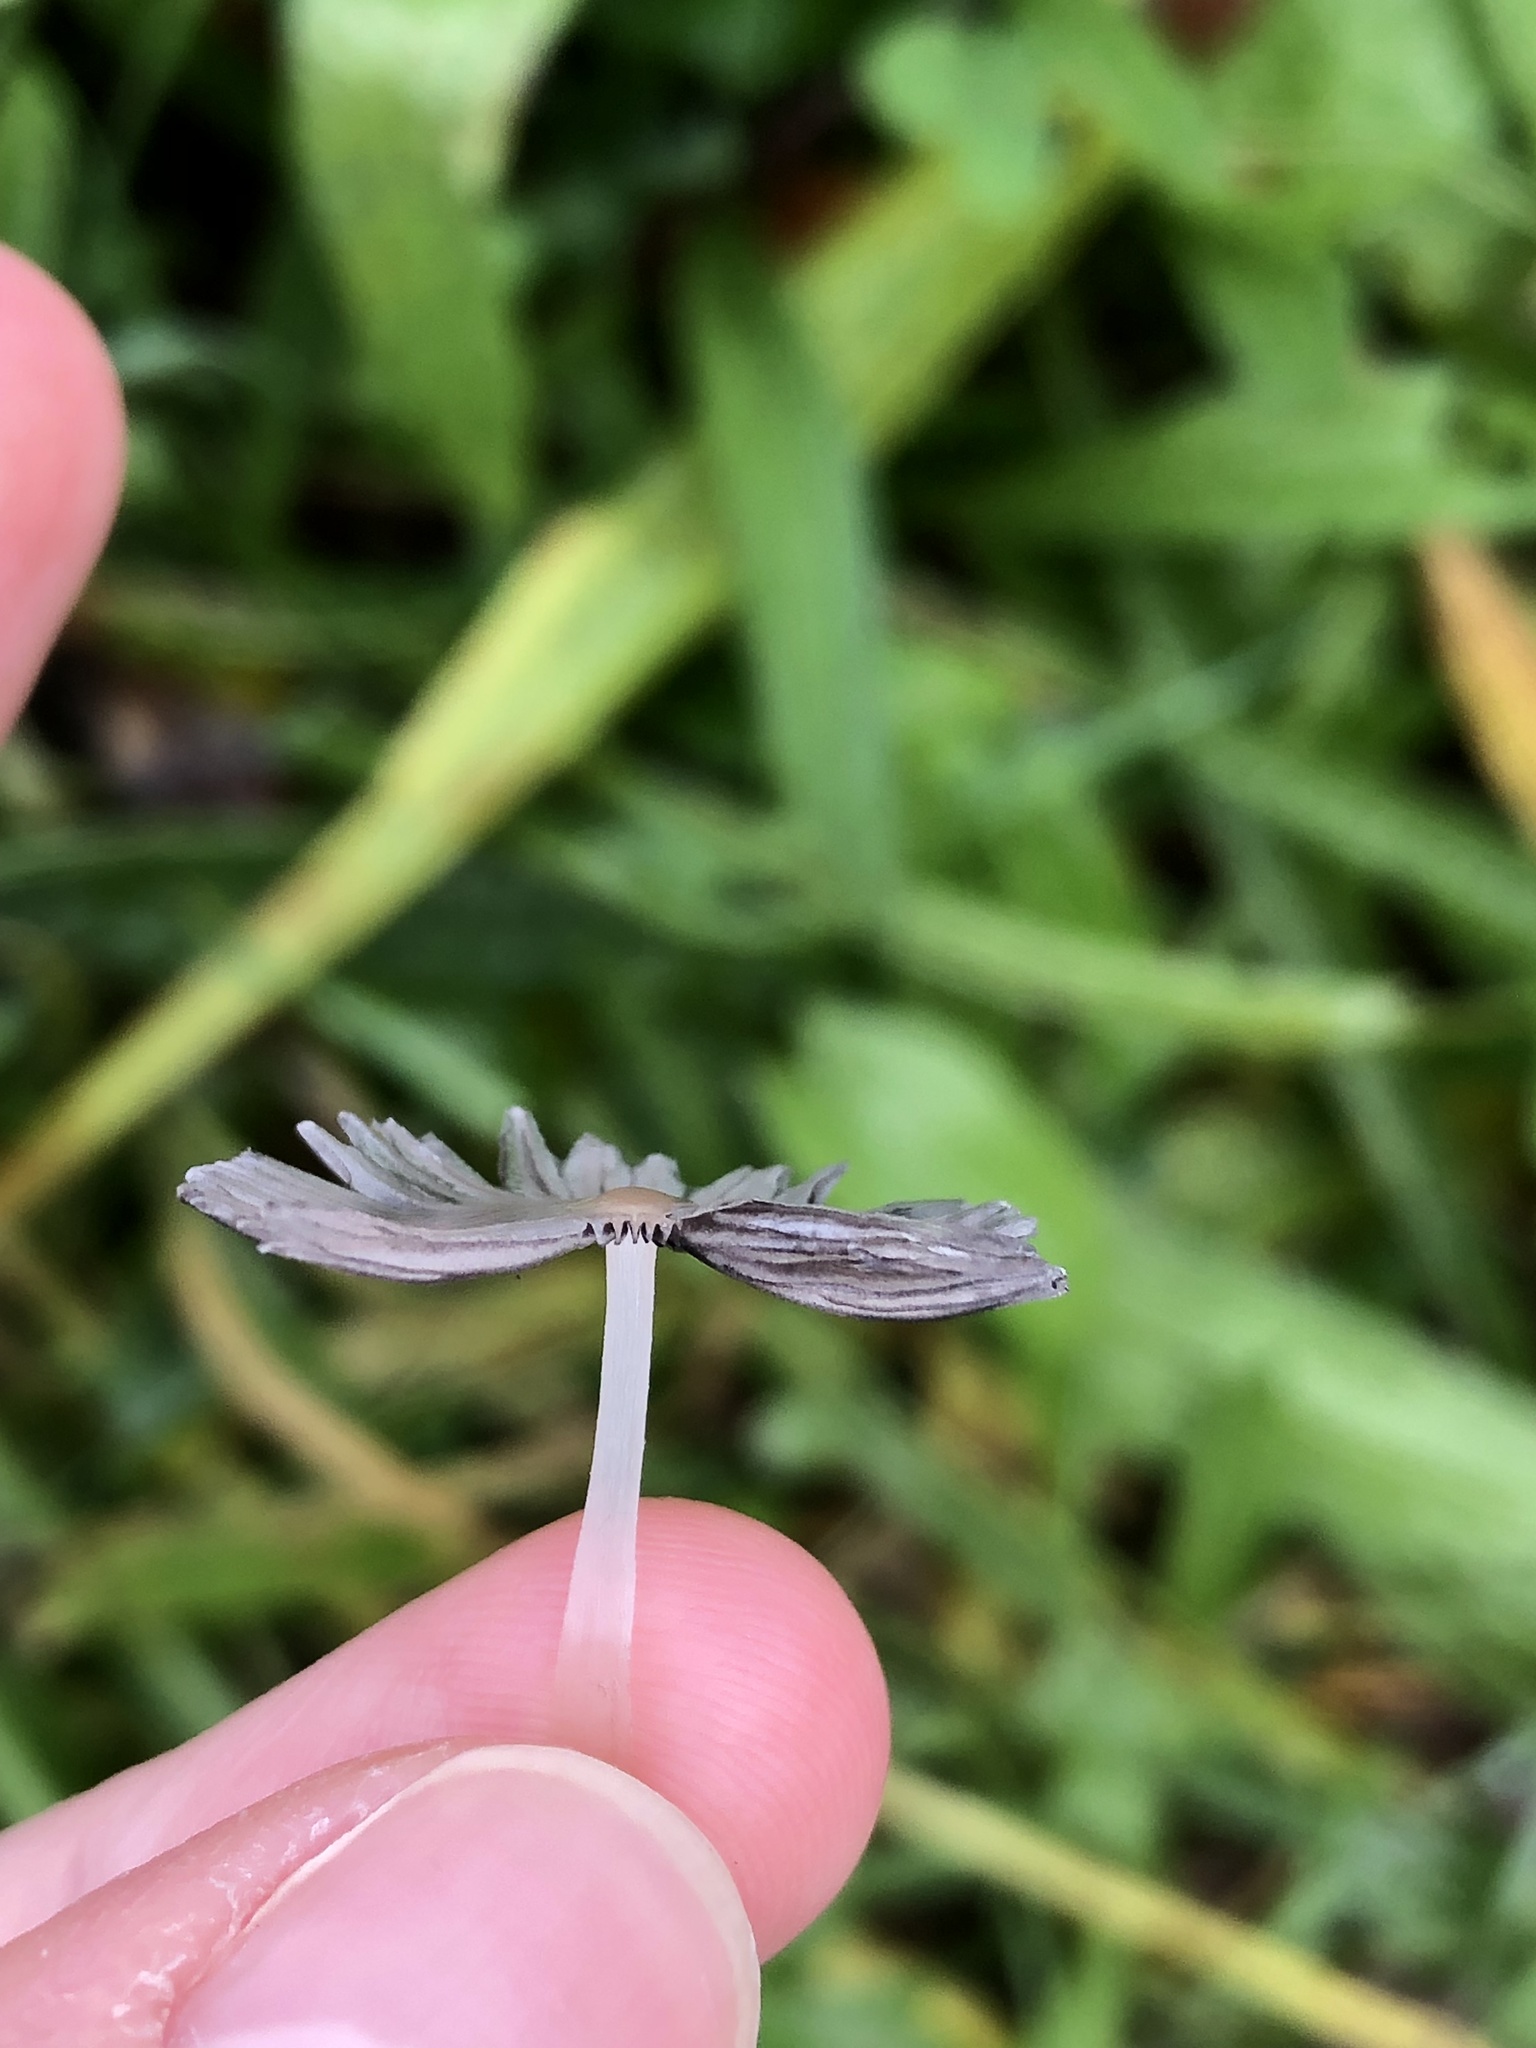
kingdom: Fungi
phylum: Basidiomycota
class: Agaricomycetes
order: Agaricales
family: Psathyrellaceae
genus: Coprinopsis
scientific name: Coprinopsis lagopus
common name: Hare'sfoot inkcap
